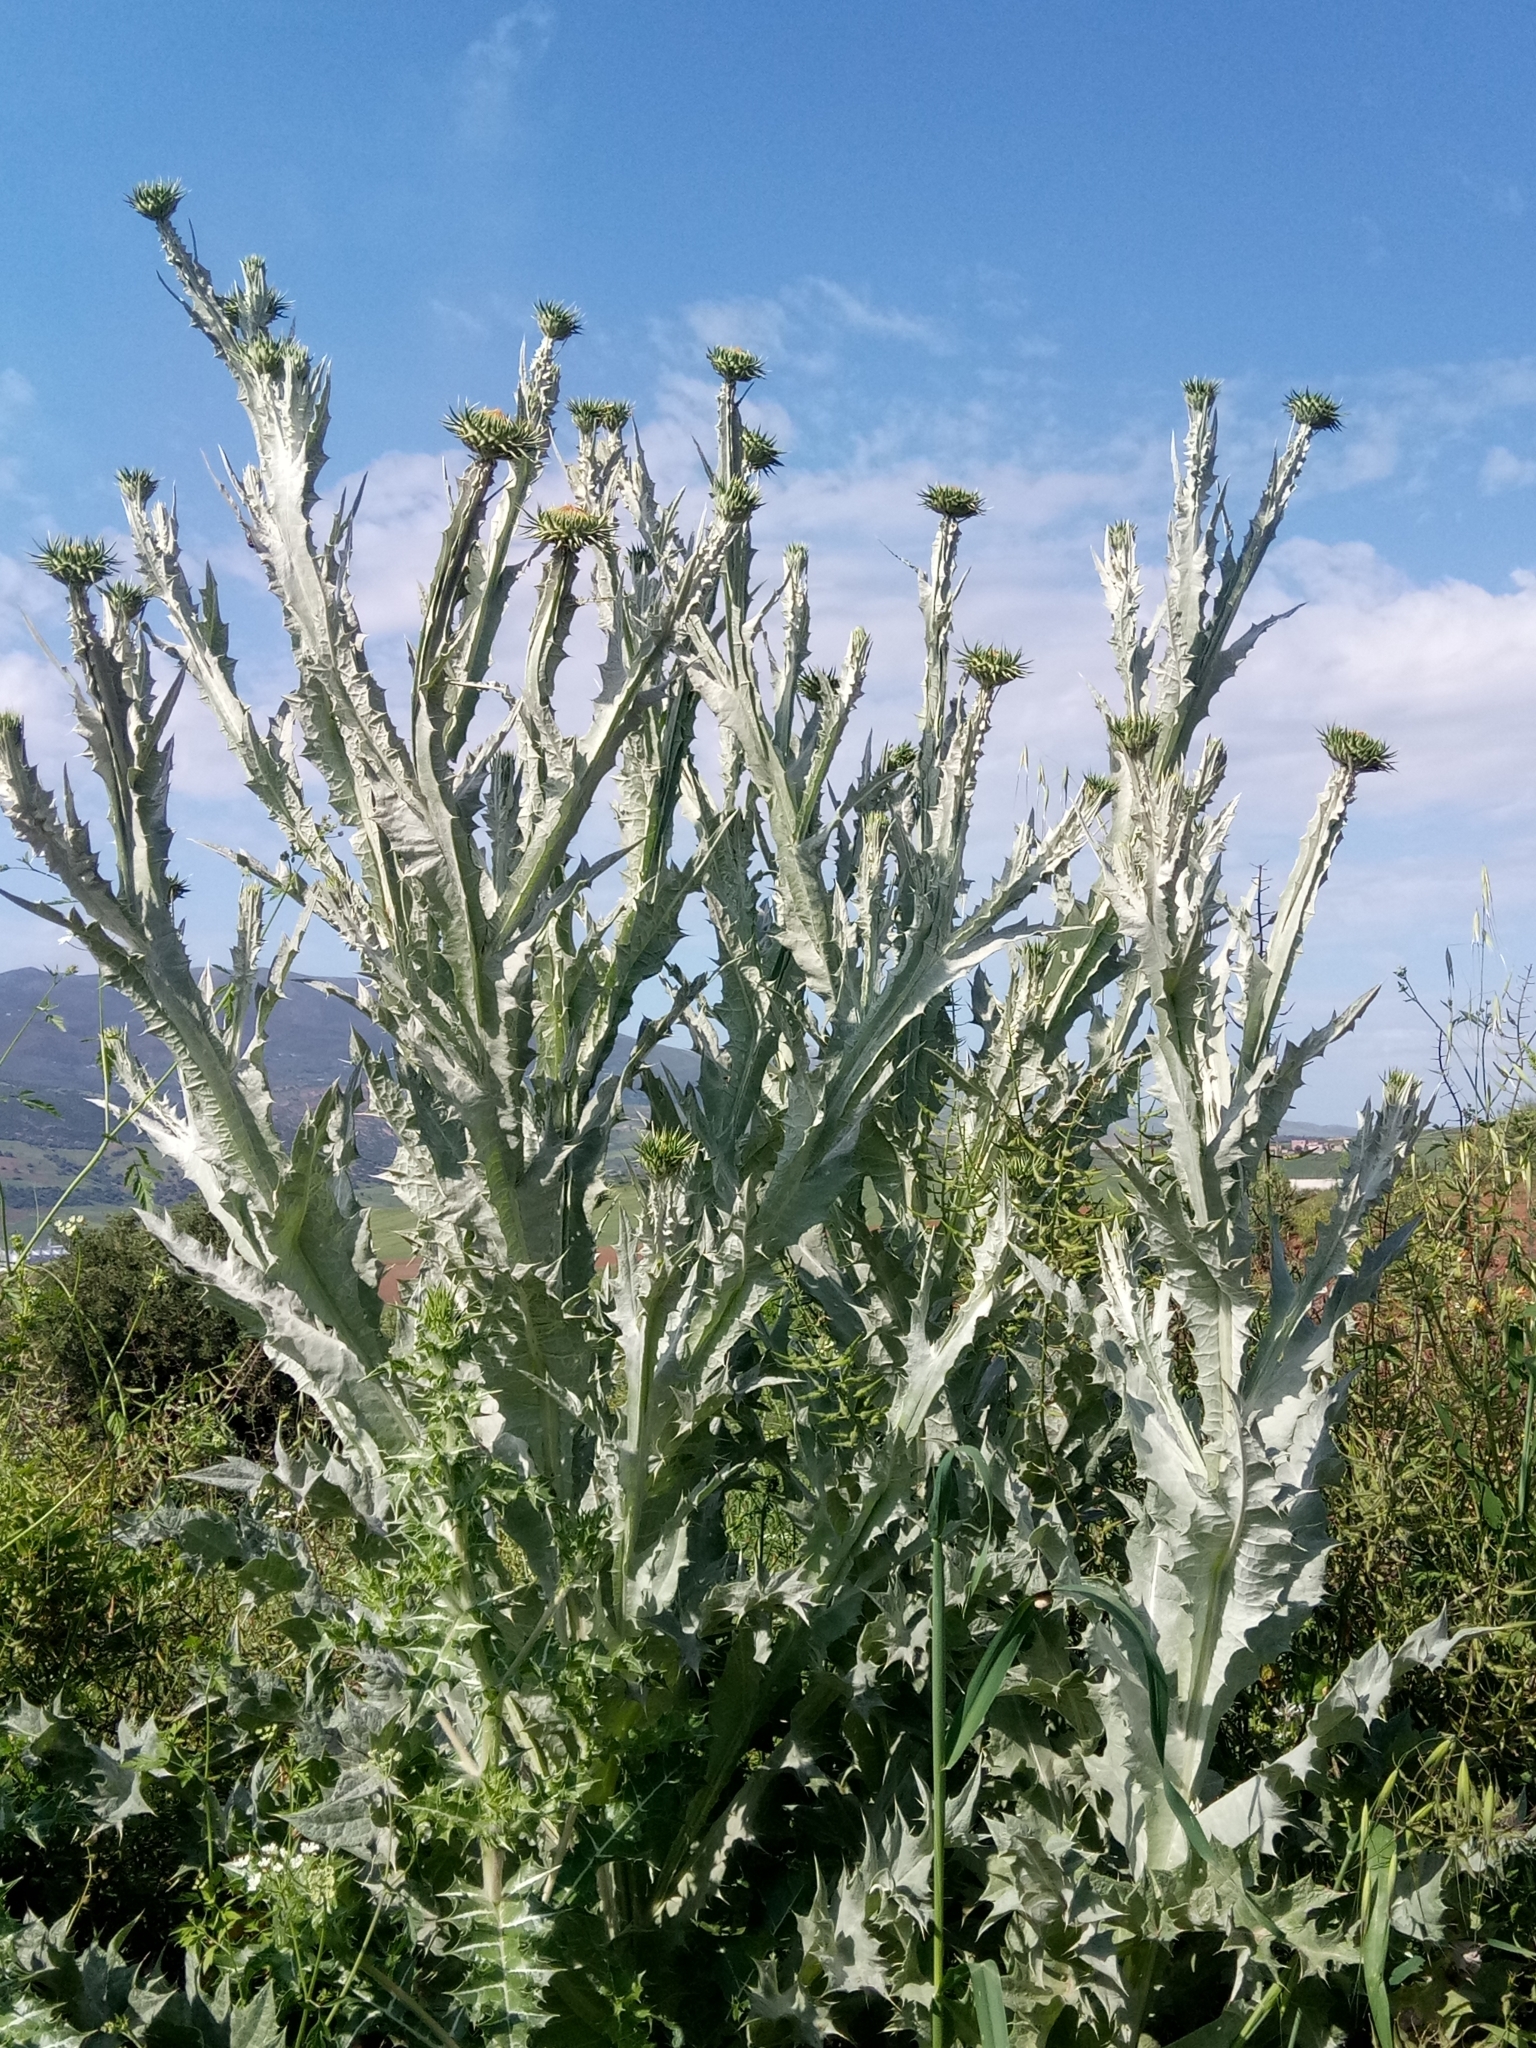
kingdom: Plantae
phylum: Tracheophyta
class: Magnoliopsida
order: Asterales
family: Asteraceae
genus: Onopordum
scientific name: Onopordum macracanthum
